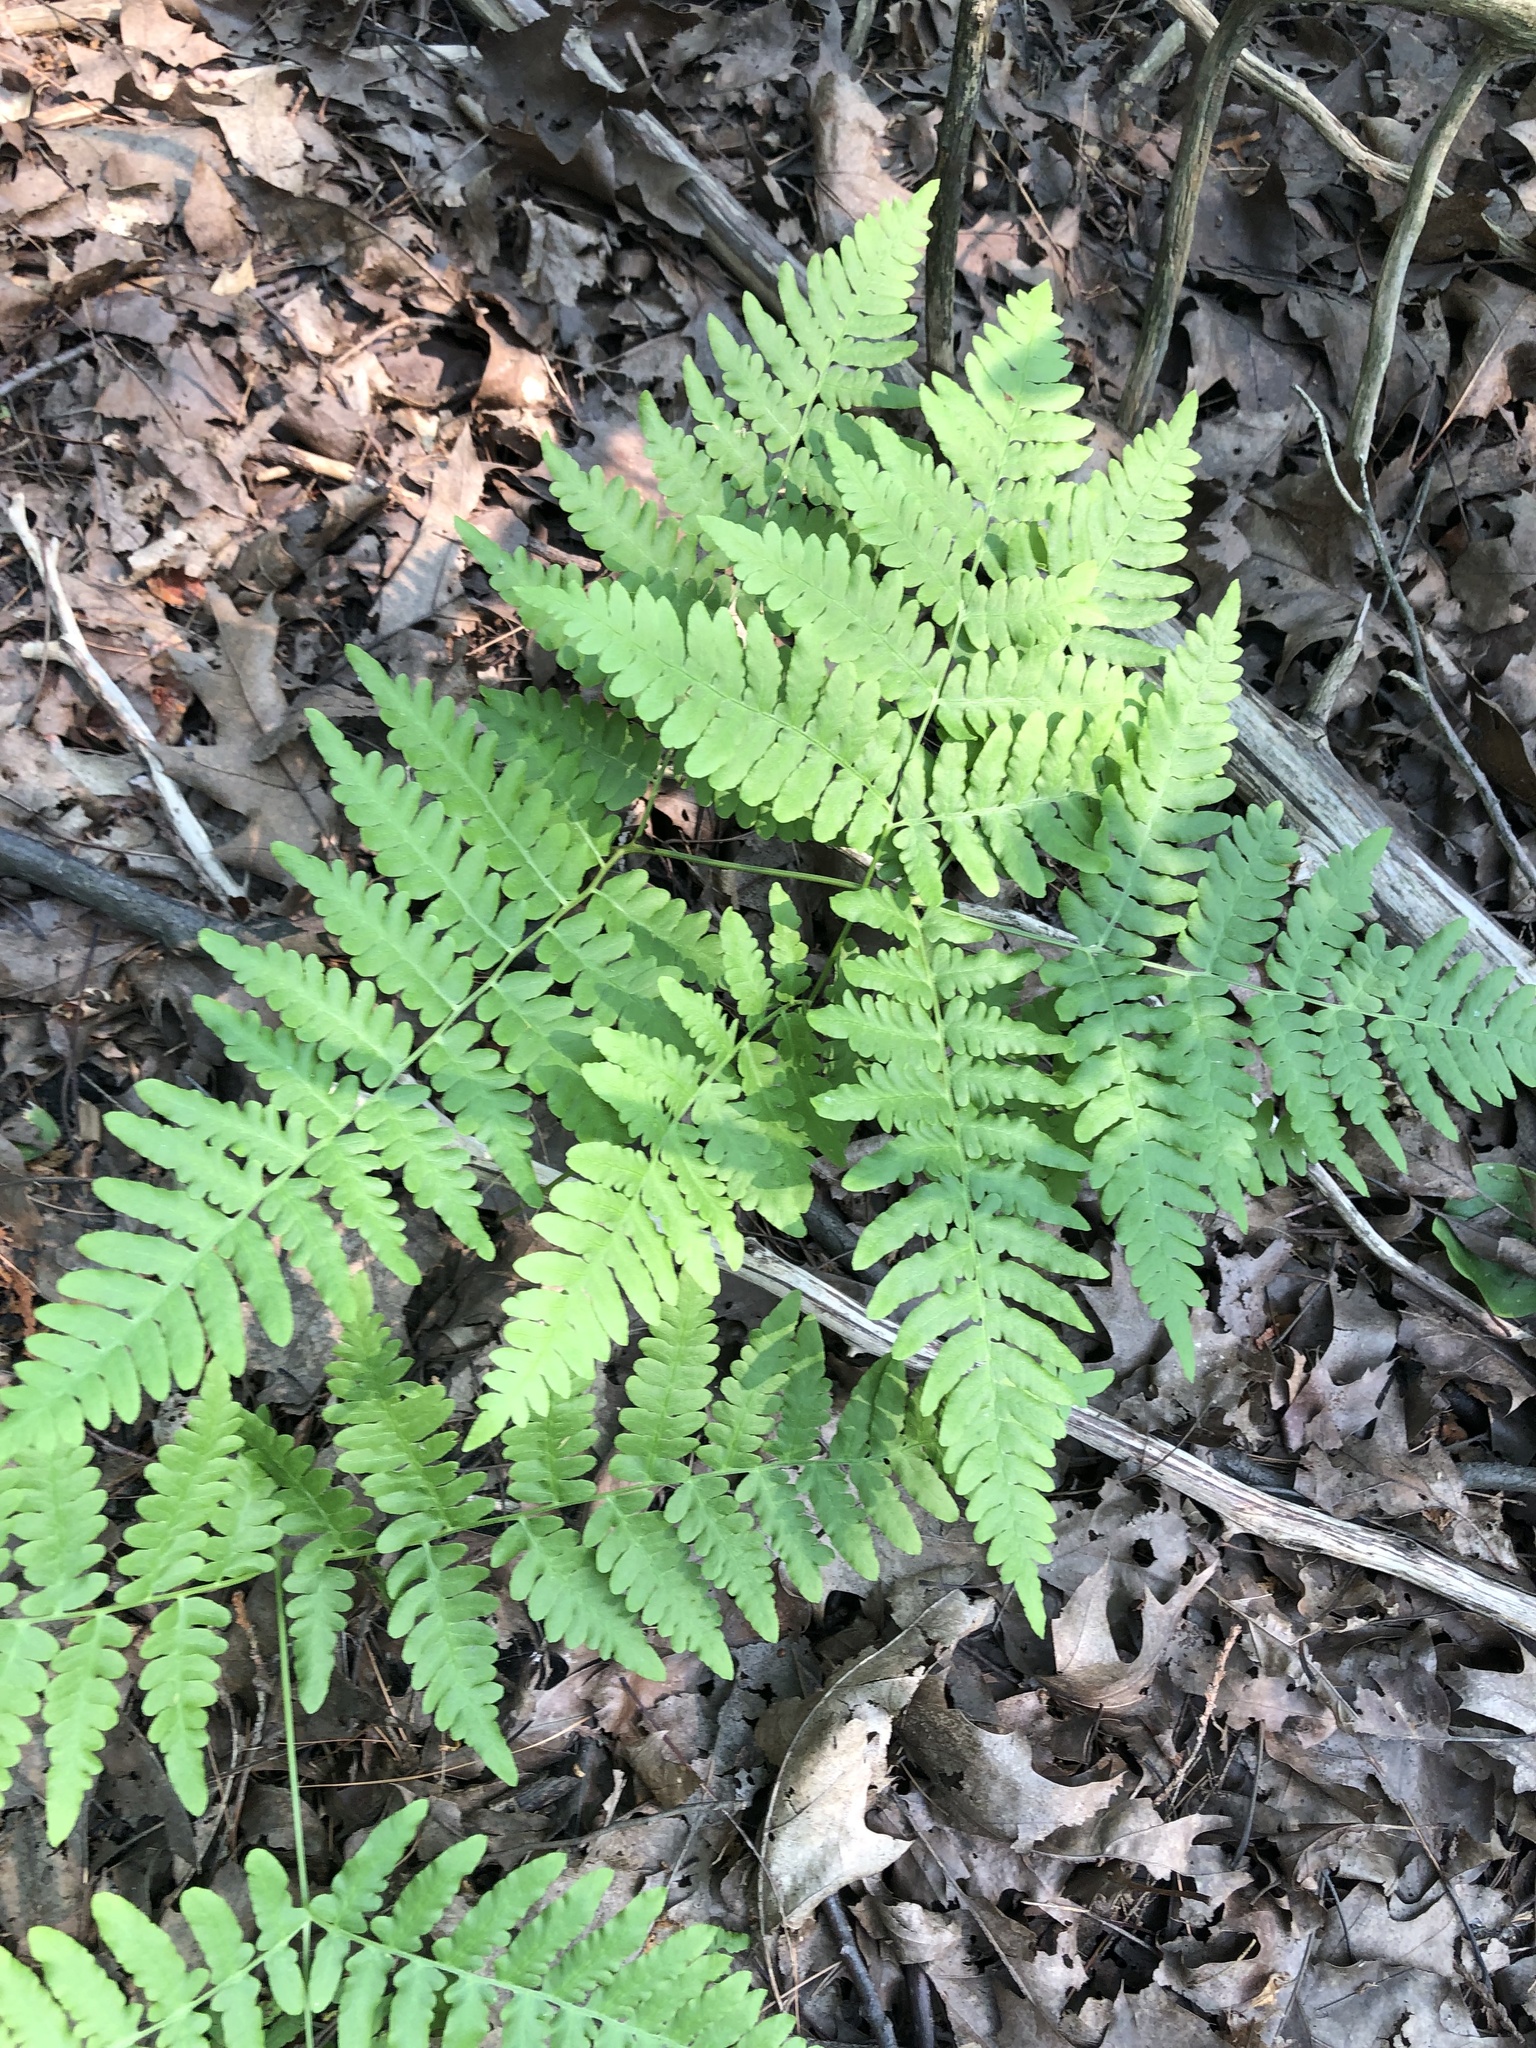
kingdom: Plantae
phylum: Tracheophyta
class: Polypodiopsida
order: Polypodiales
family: Dennstaedtiaceae
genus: Pteridium
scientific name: Pteridium aquilinum
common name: Bracken
